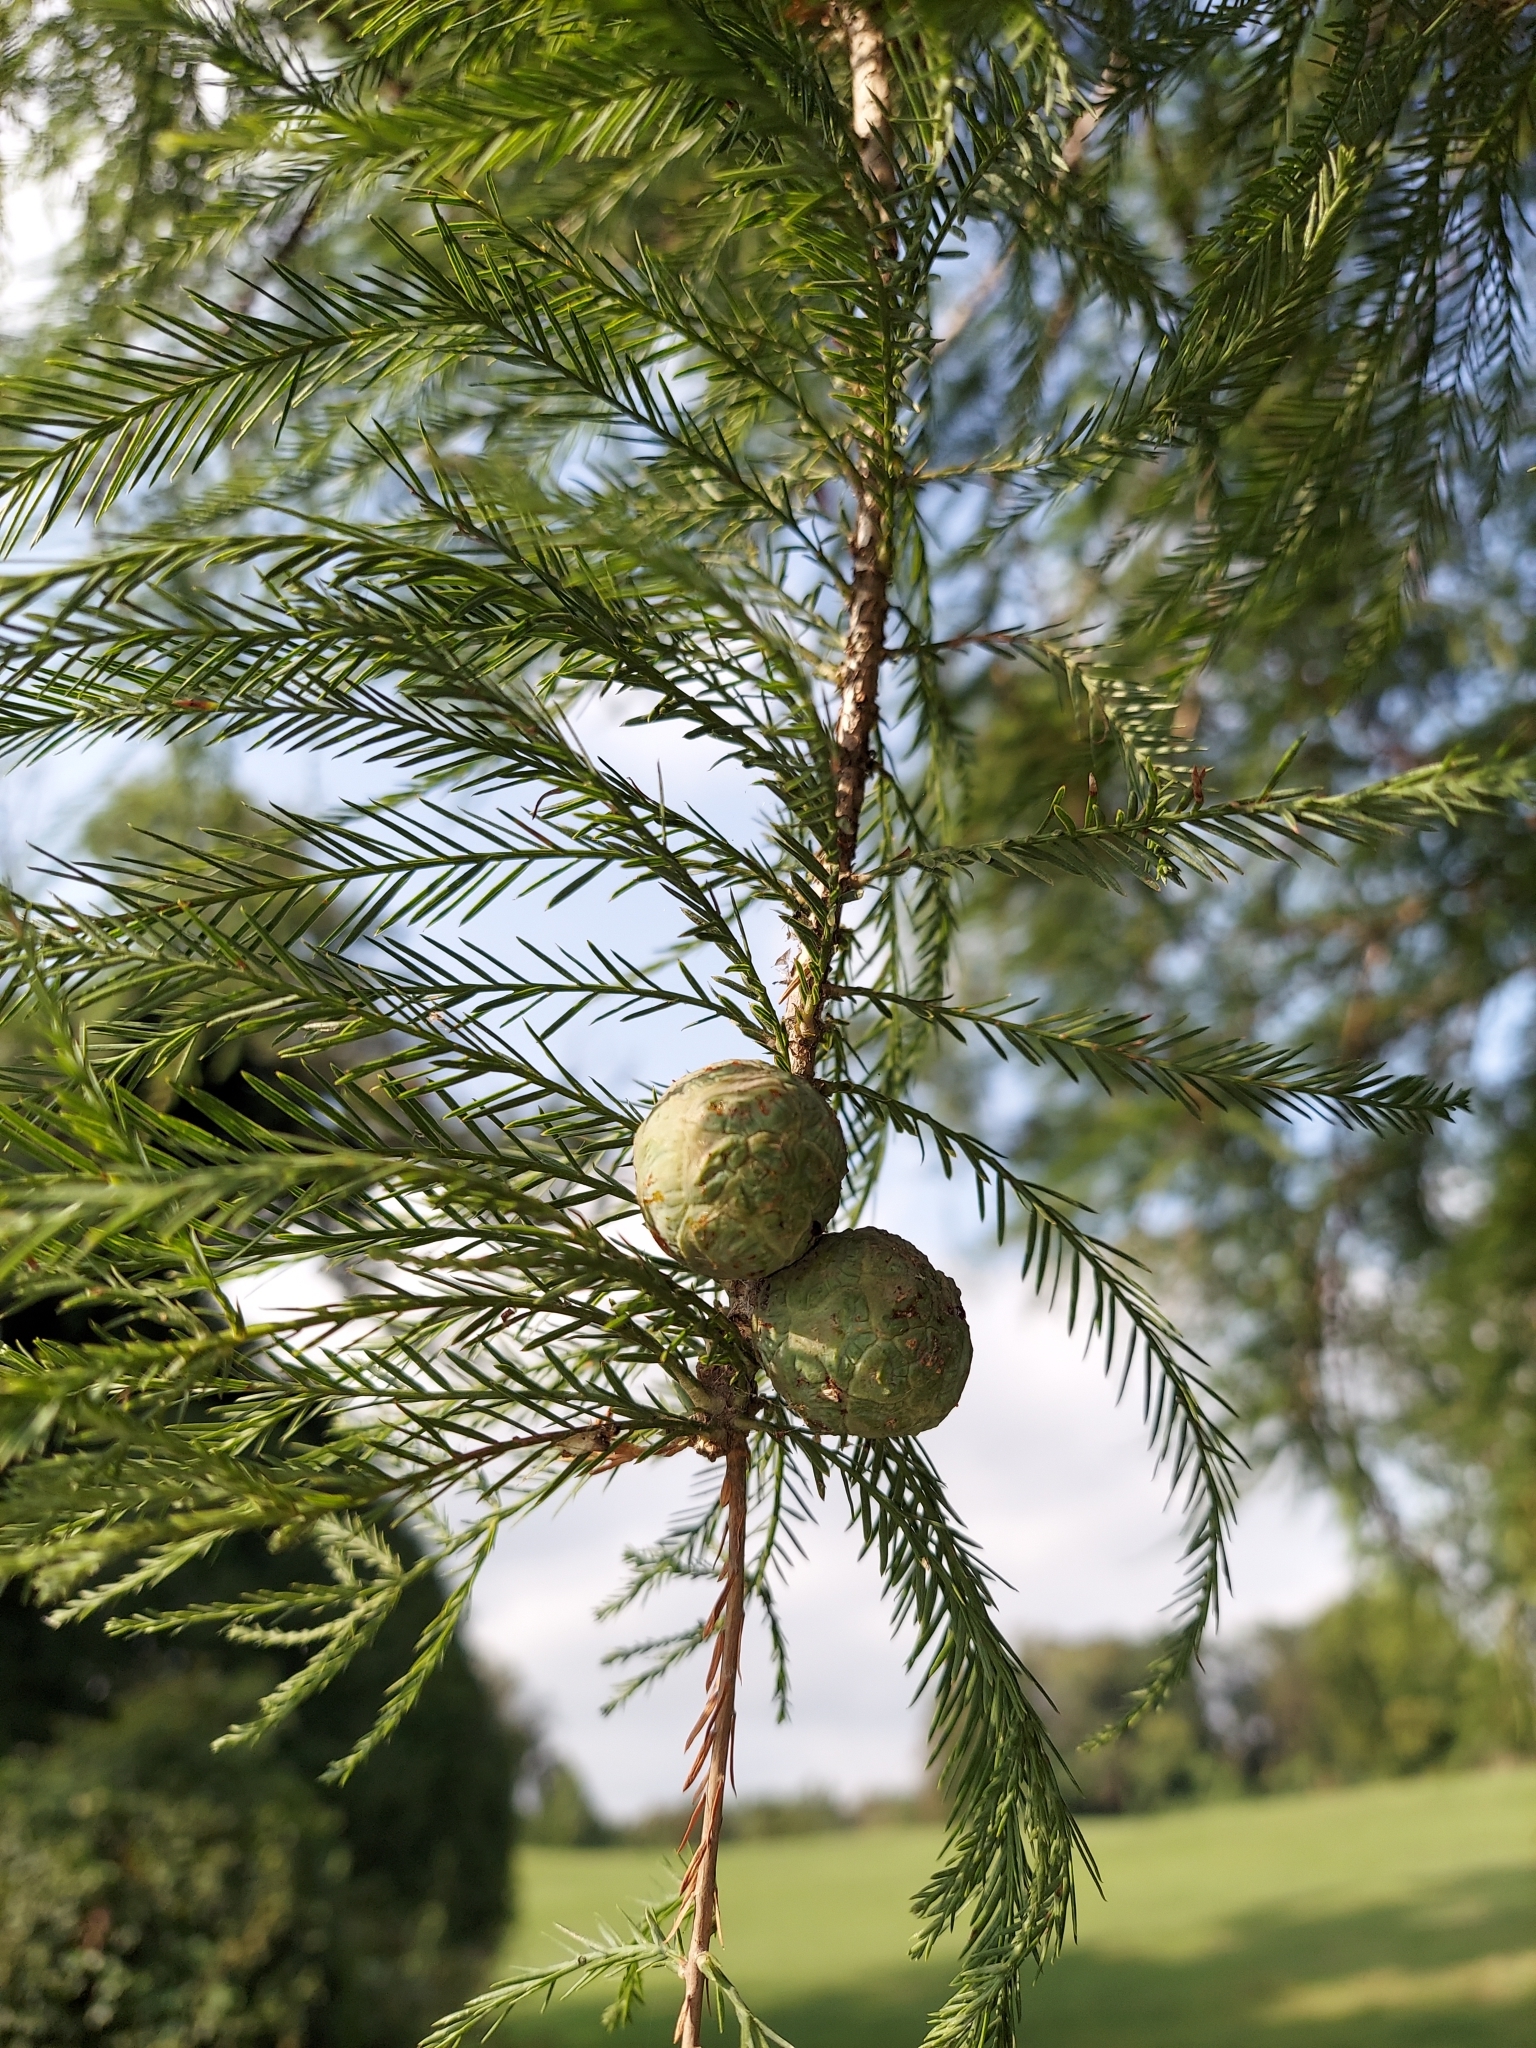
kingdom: Plantae
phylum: Tracheophyta
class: Pinopsida
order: Pinales
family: Cupressaceae
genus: Taxodium
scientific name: Taxodium distichum
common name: Bald cypress
